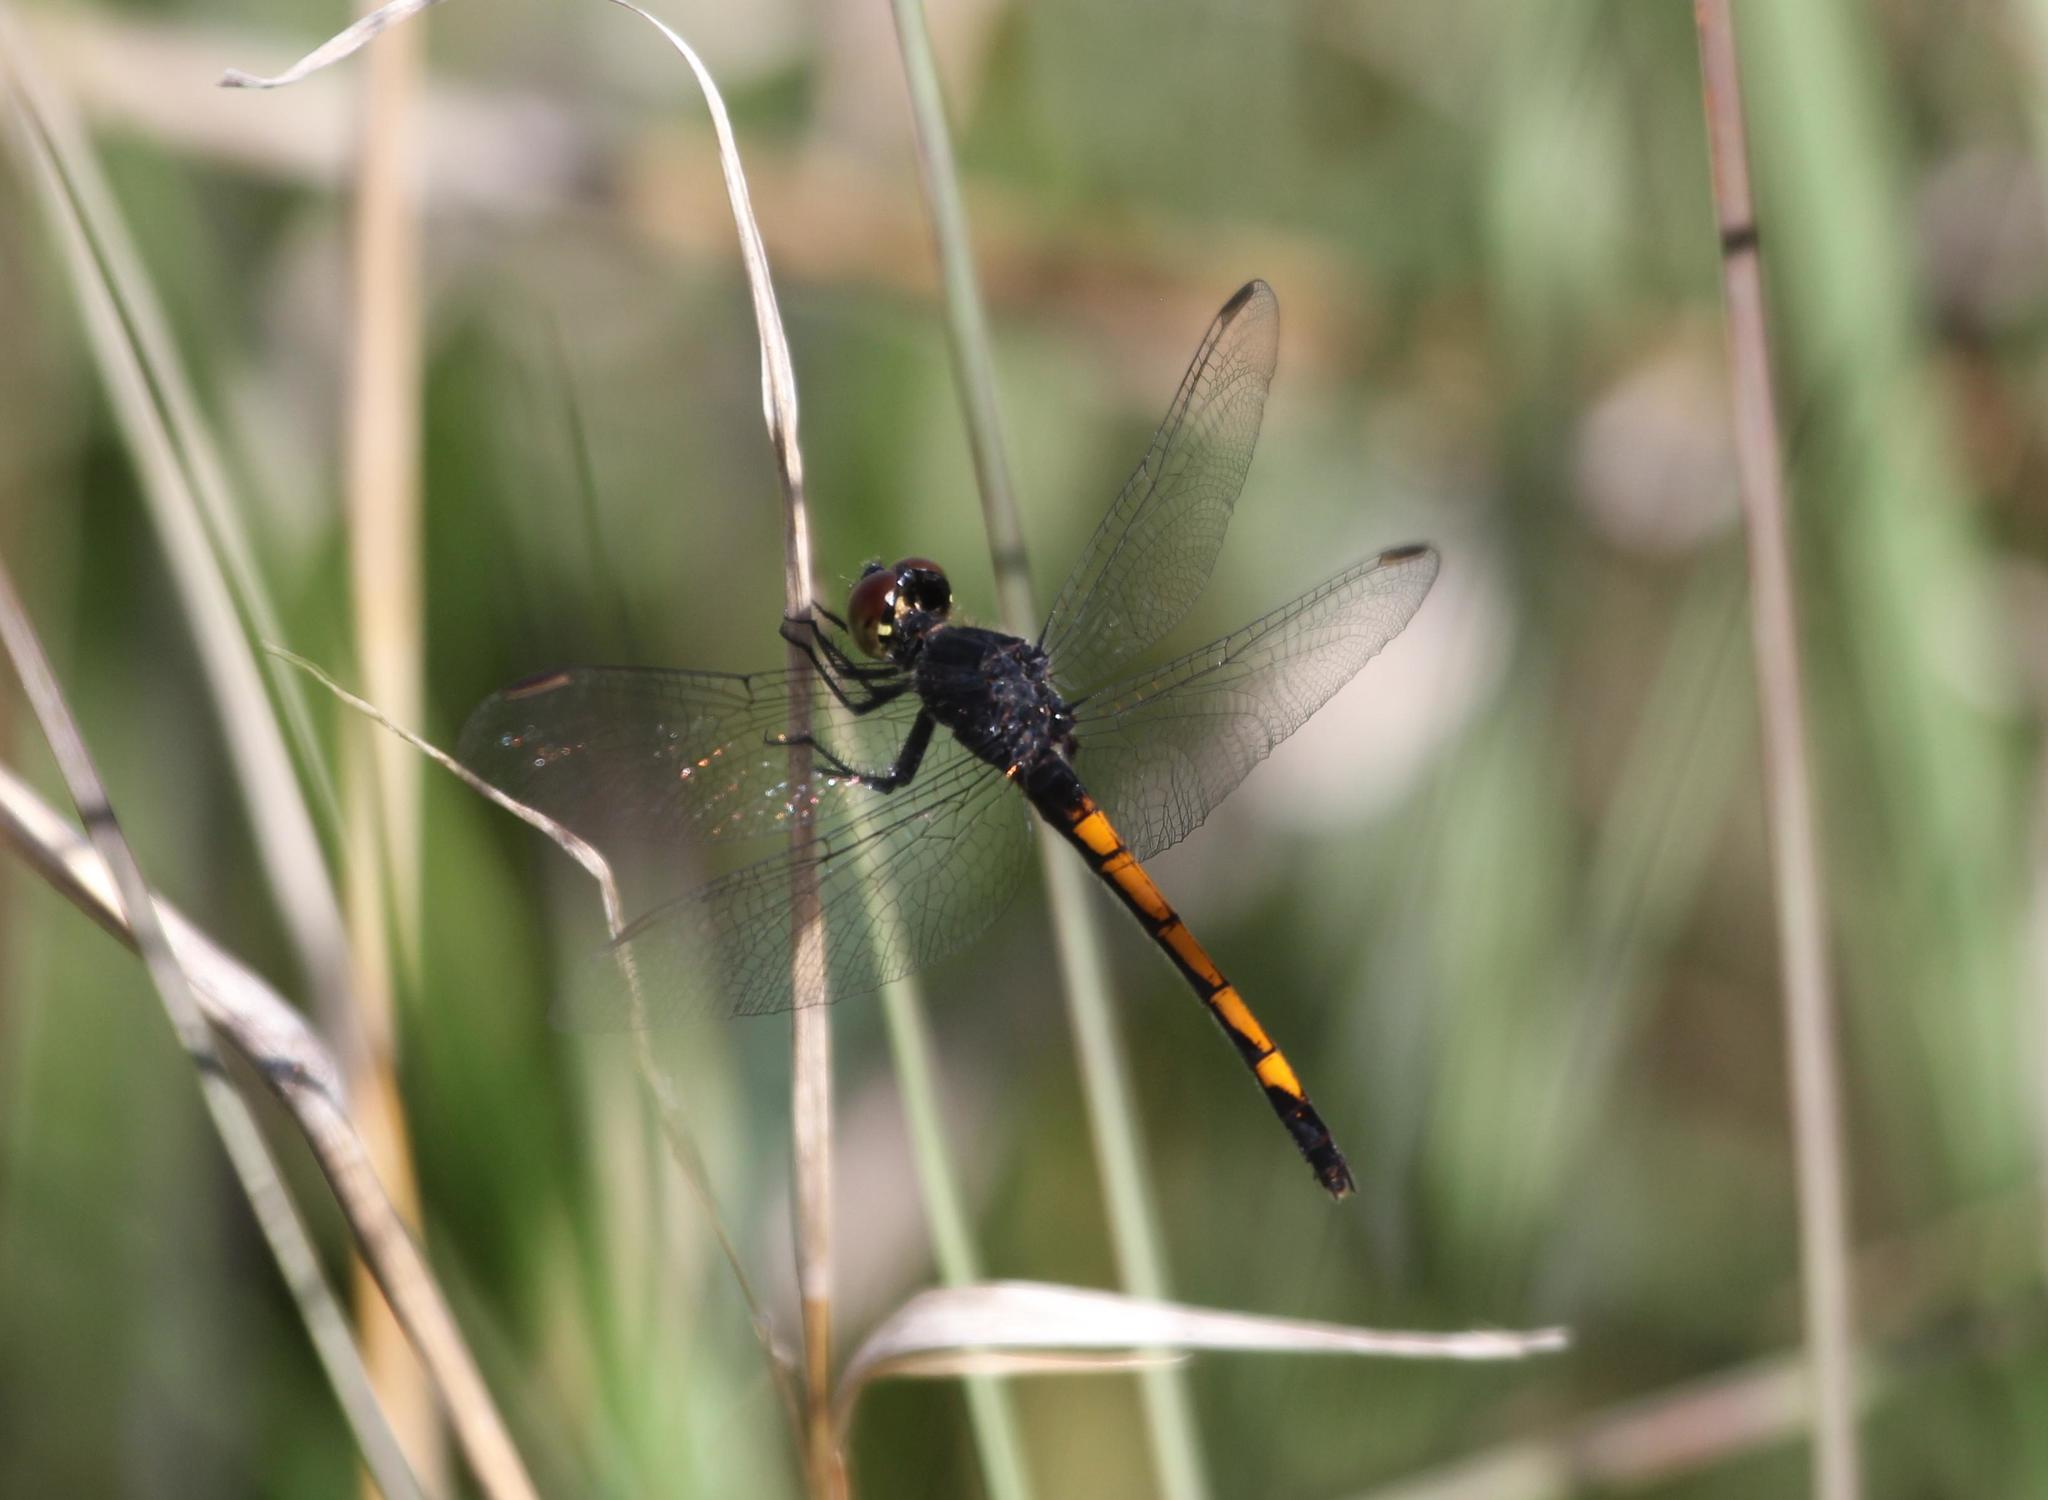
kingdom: Animalia
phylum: Arthropoda
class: Insecta
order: Odonata
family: Libellulidae
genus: Erythrodiplax
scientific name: Erythrodiplax berenice
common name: Seaside dragonlet
